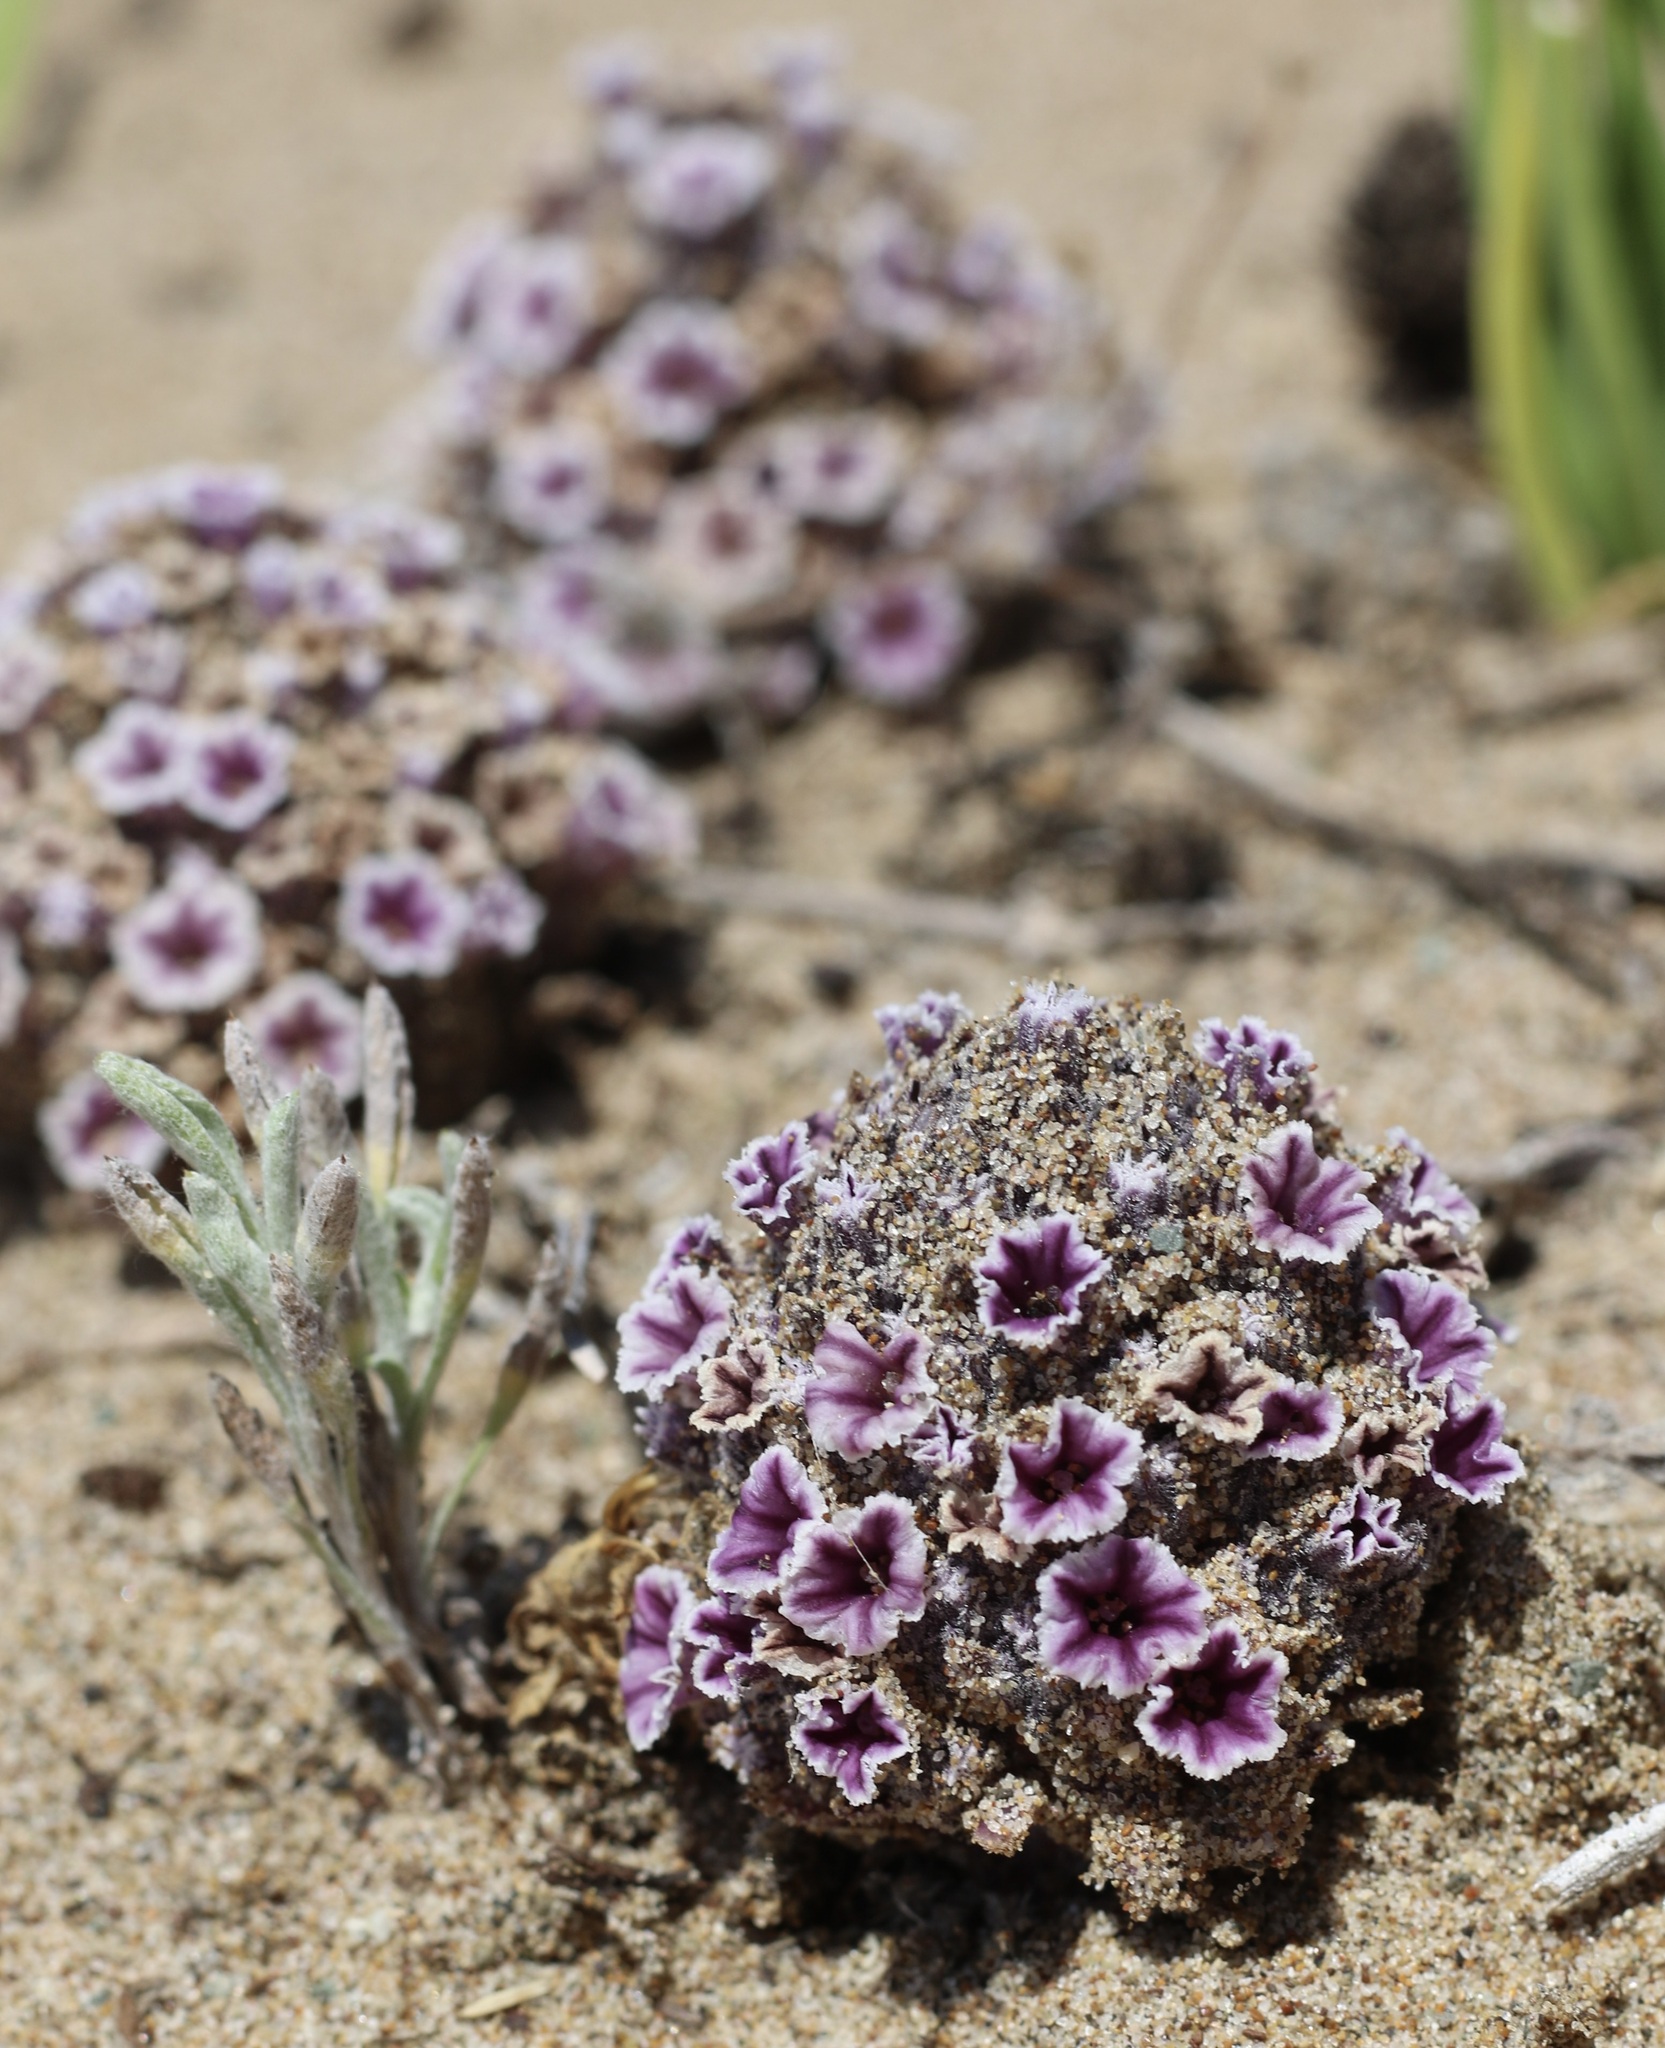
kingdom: Plantae
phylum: Tracheophyta
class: Magnoliopsida
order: Boraginales
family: Lennoaceae
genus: Pholisma
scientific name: Pholisma arenarium
